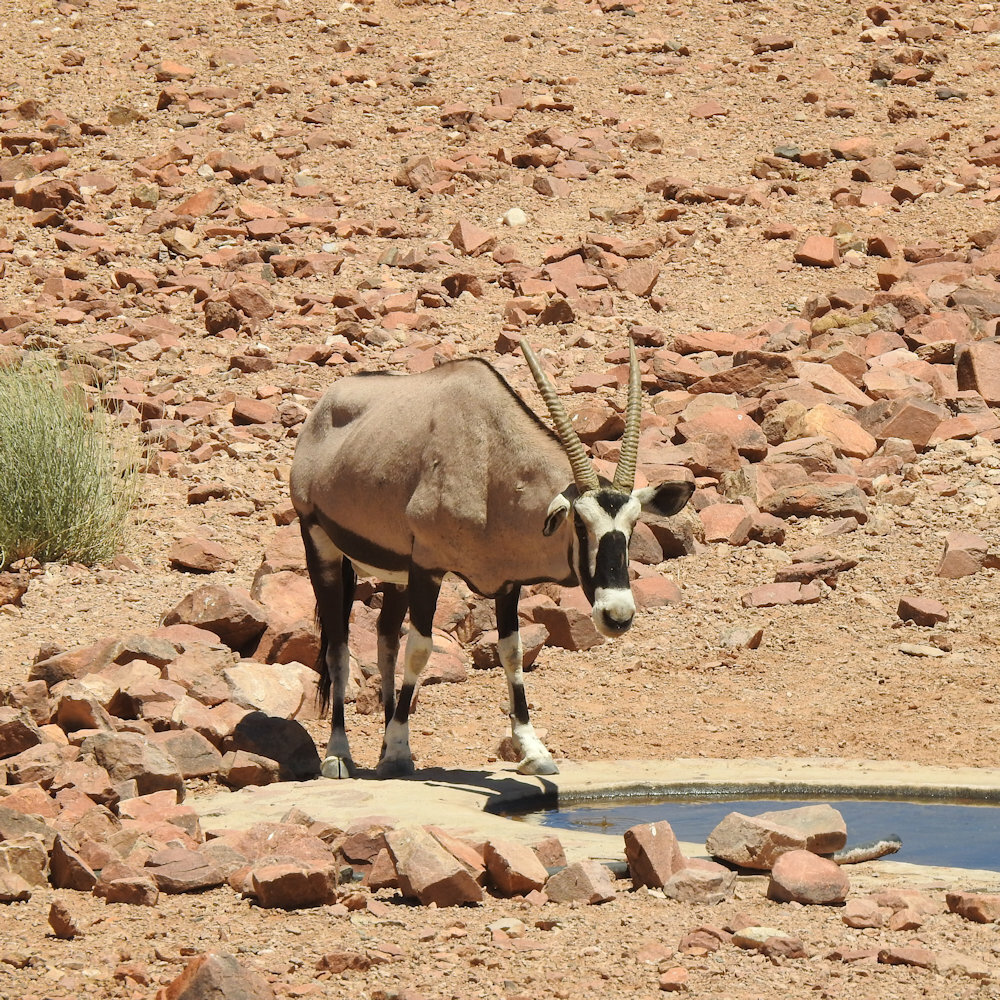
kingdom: Animalia
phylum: Chordata
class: Mammalia
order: Artiodactyla
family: Bovidae
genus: Oryx
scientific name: Oryx gazella
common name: Gemsbok
